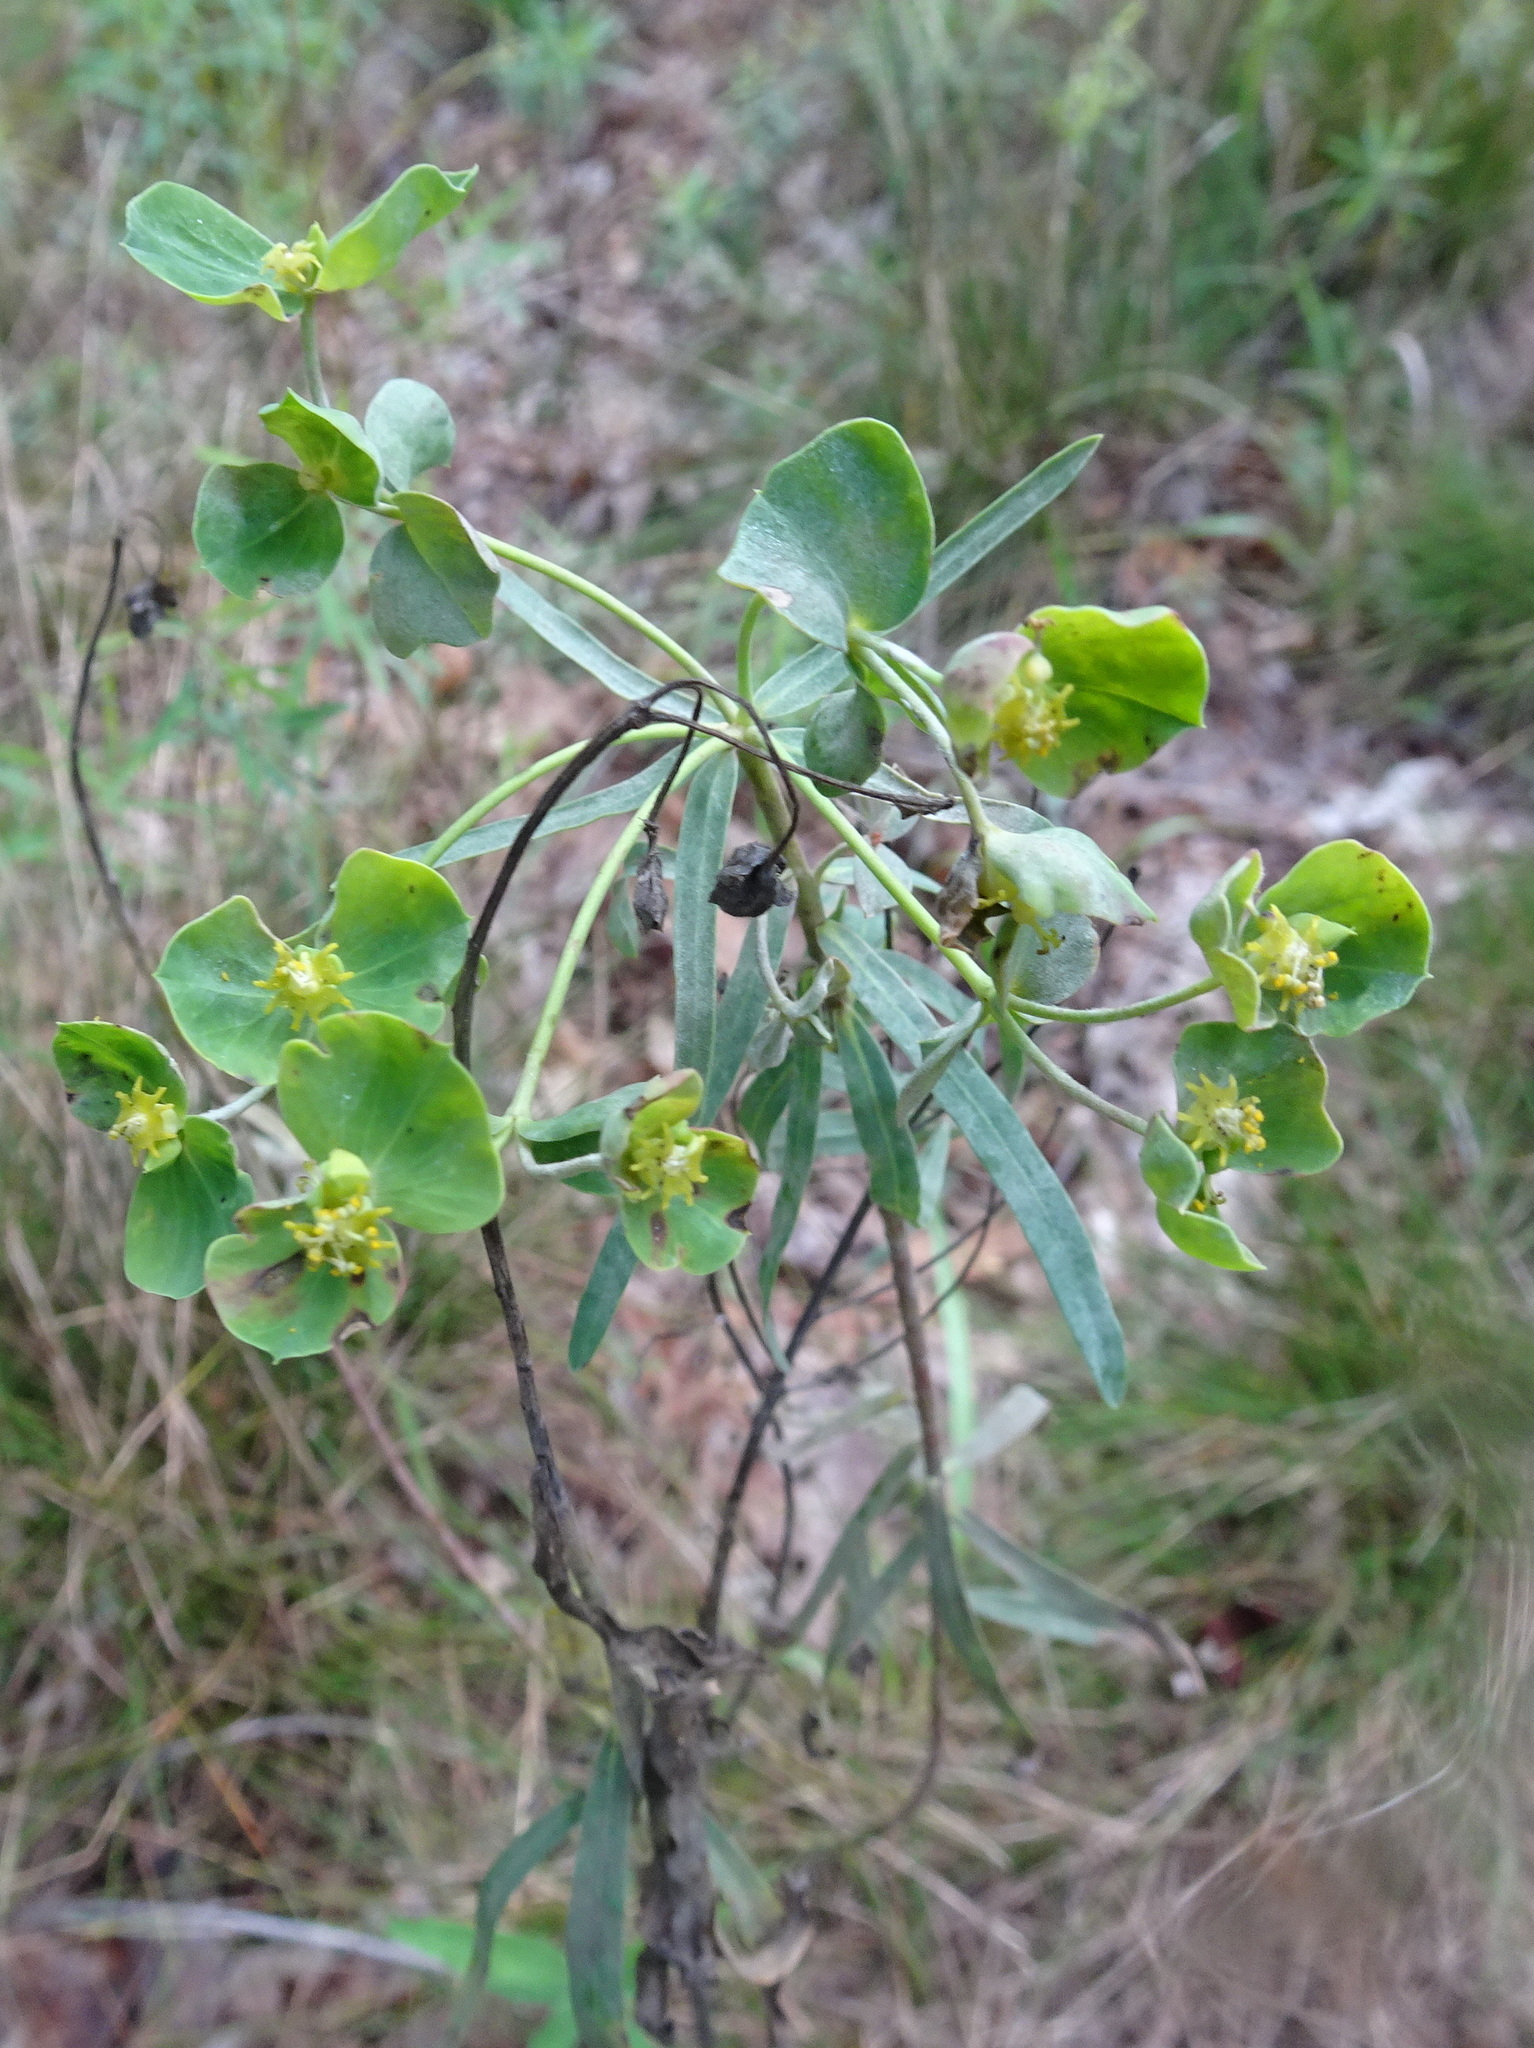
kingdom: Plantae
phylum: Tracheophyta
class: Magnoliopsida
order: Malpighiales
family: Euphorbiaceae
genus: Euphorbia
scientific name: Euphorbia virgata
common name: Leafy spurge
